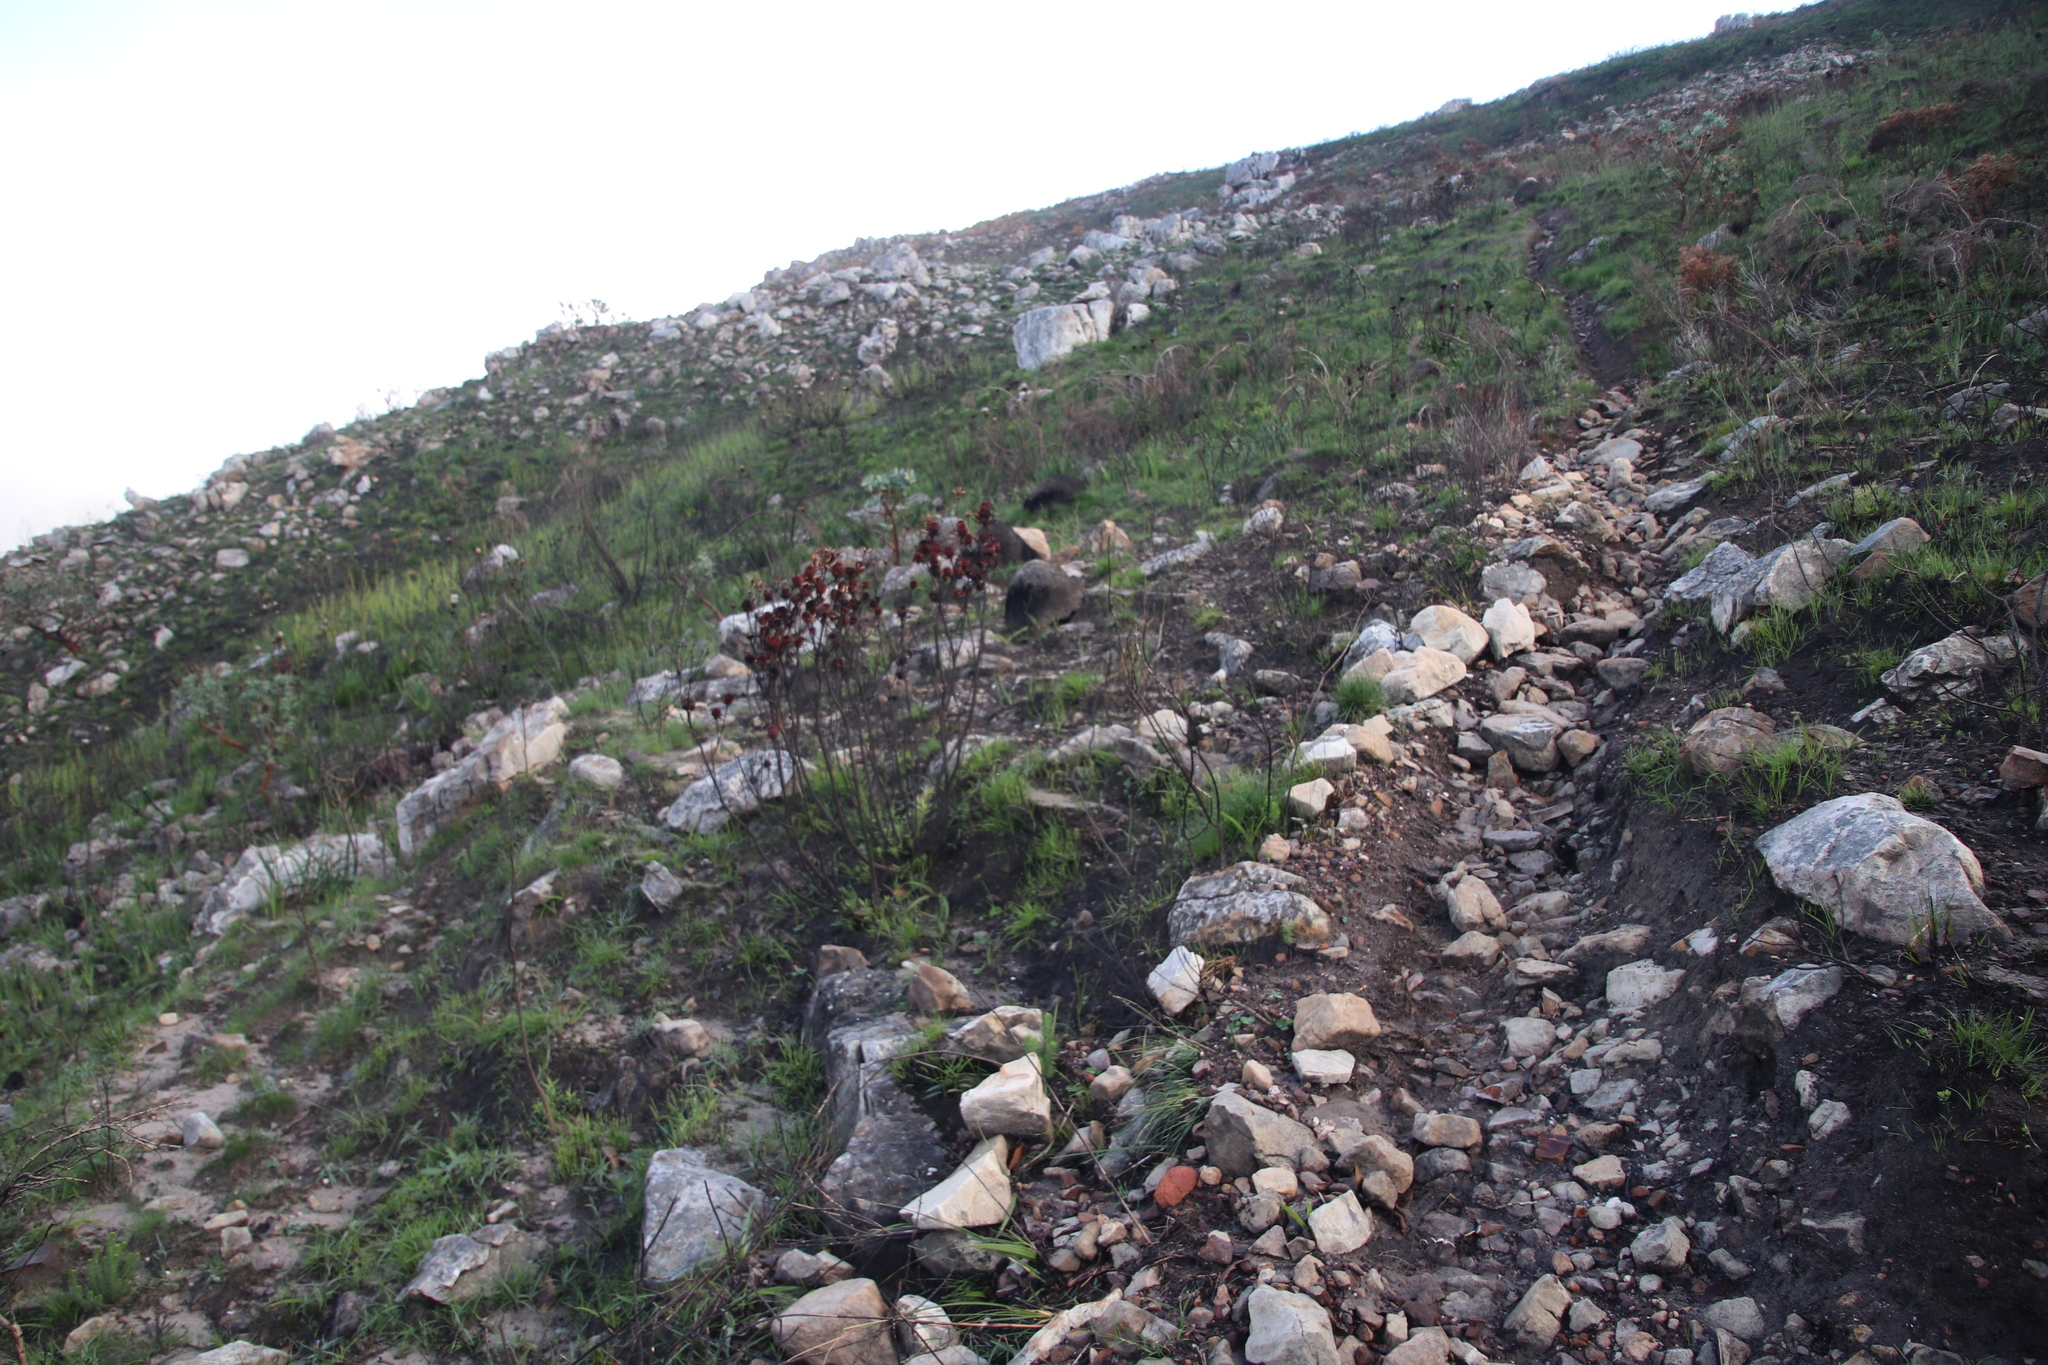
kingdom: Plantae
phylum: Tracheophyta
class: Magnoliopsida
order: Proteales
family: Proteaceae
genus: Leucadendron
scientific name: Leucadendron spissifolium
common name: Spear-leaf conebush
